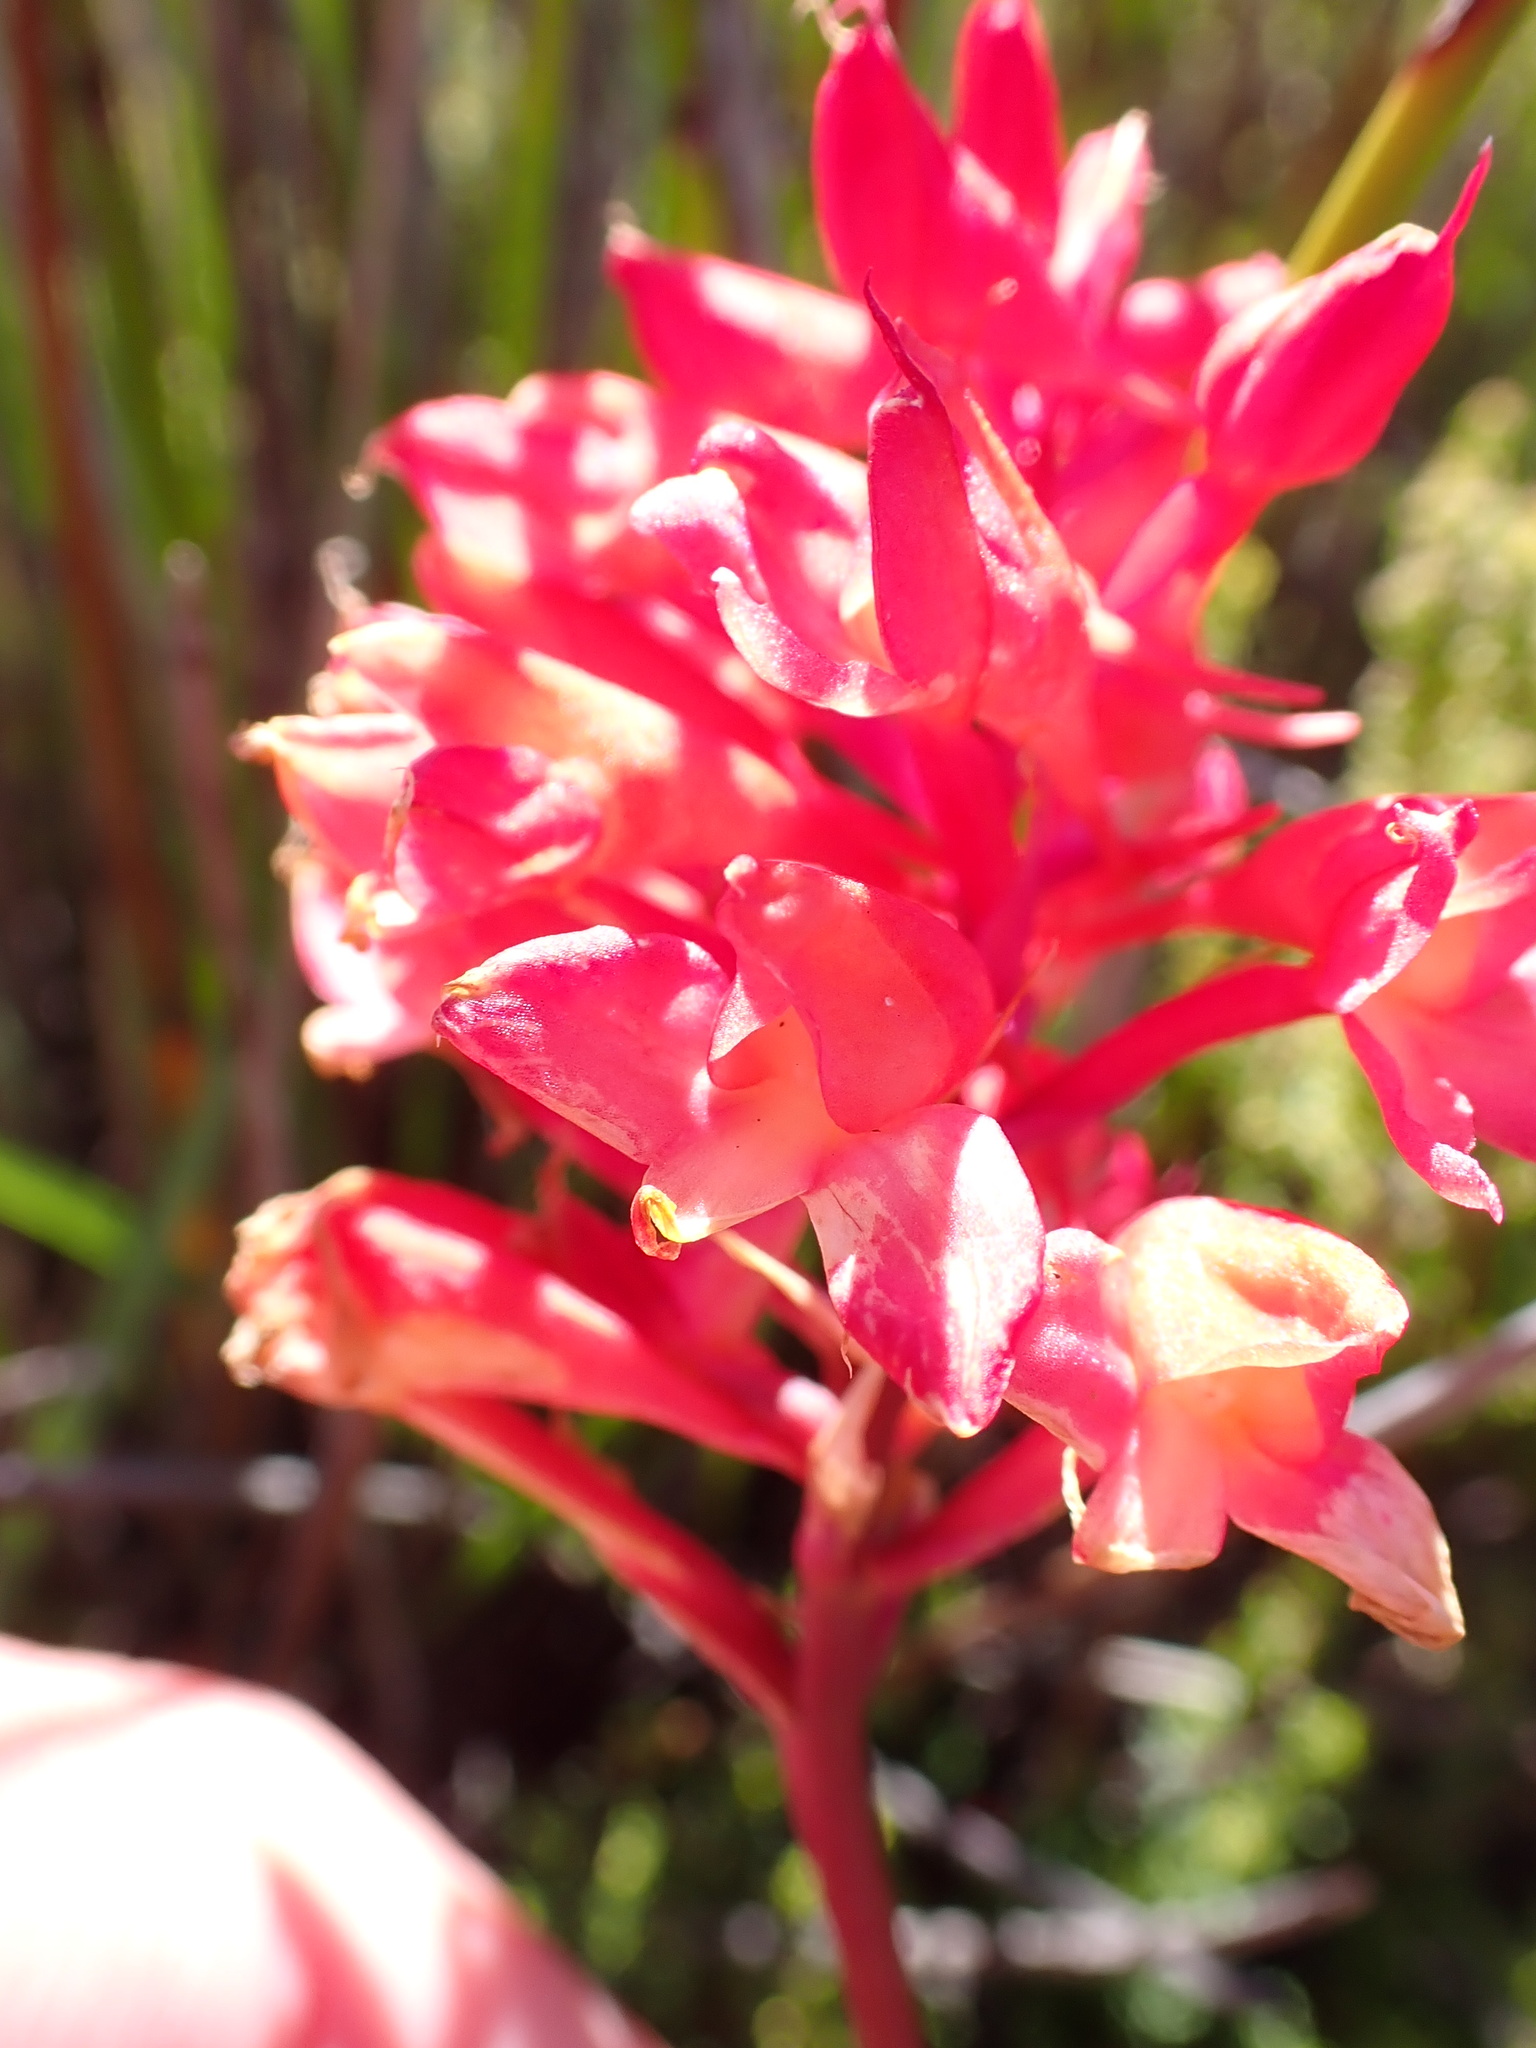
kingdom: Plantae
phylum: Tracheophyta
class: Liliopsida
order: Asparagales
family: Orchidaceae
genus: Disa
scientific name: Disa ferruginea
